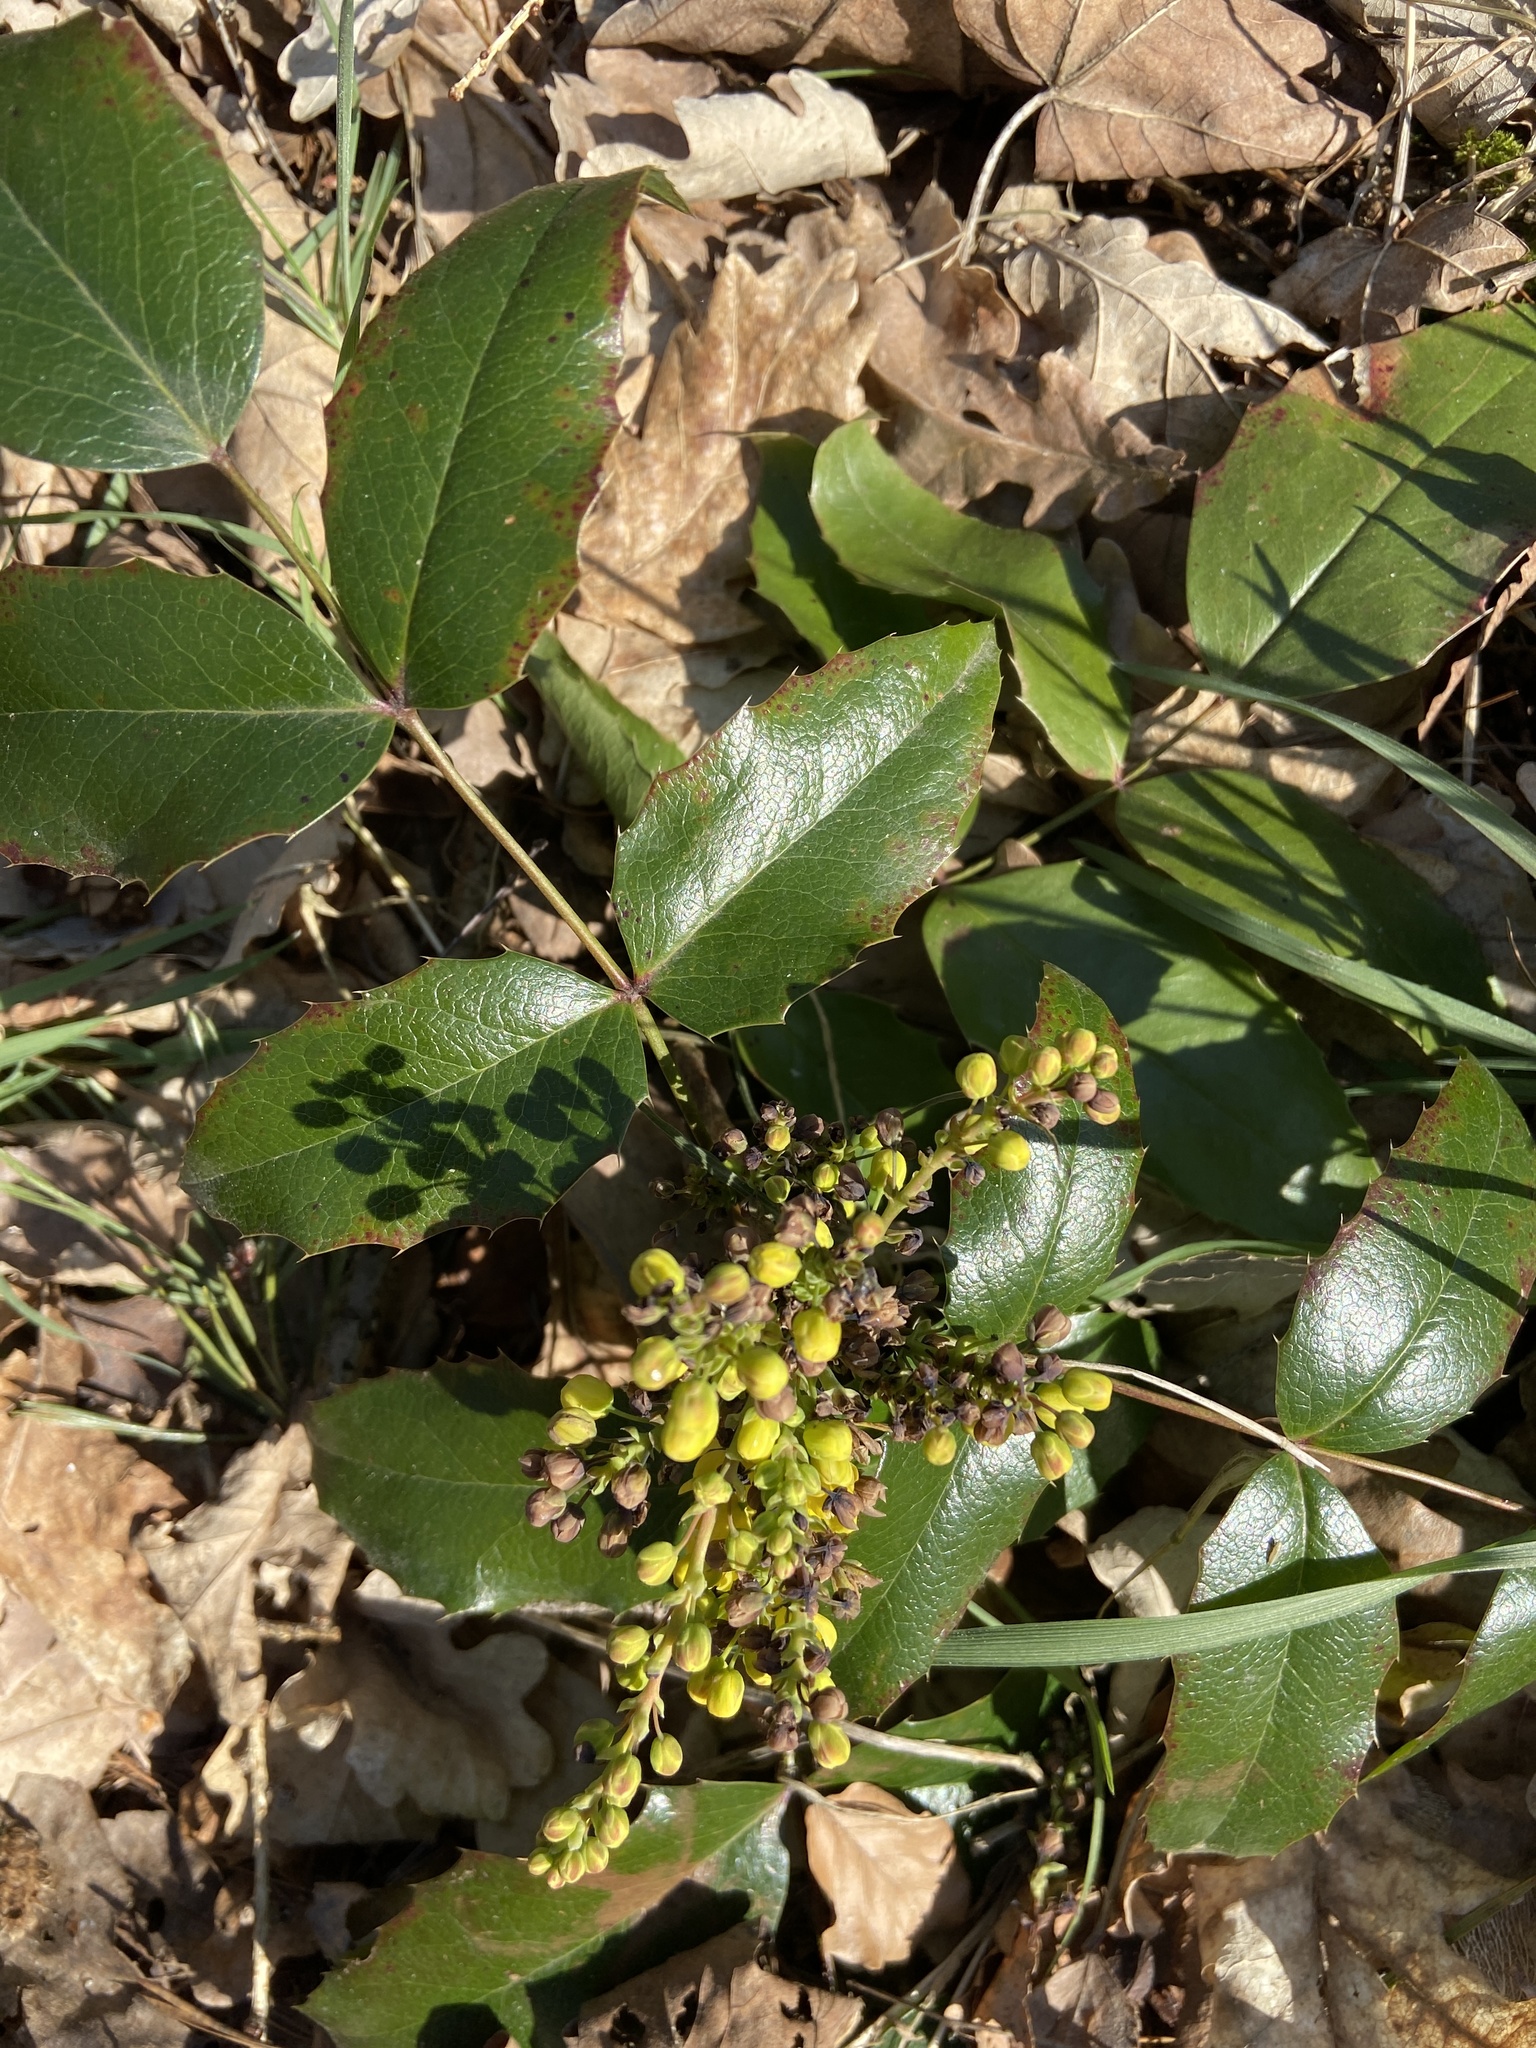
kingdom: Plantae
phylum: Tracheophyta
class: Magnoliopsida
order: Ranunculales
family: Berberidaceae
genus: Mahonia
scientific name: Mahonia aquifolium
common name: Oregon-grape
